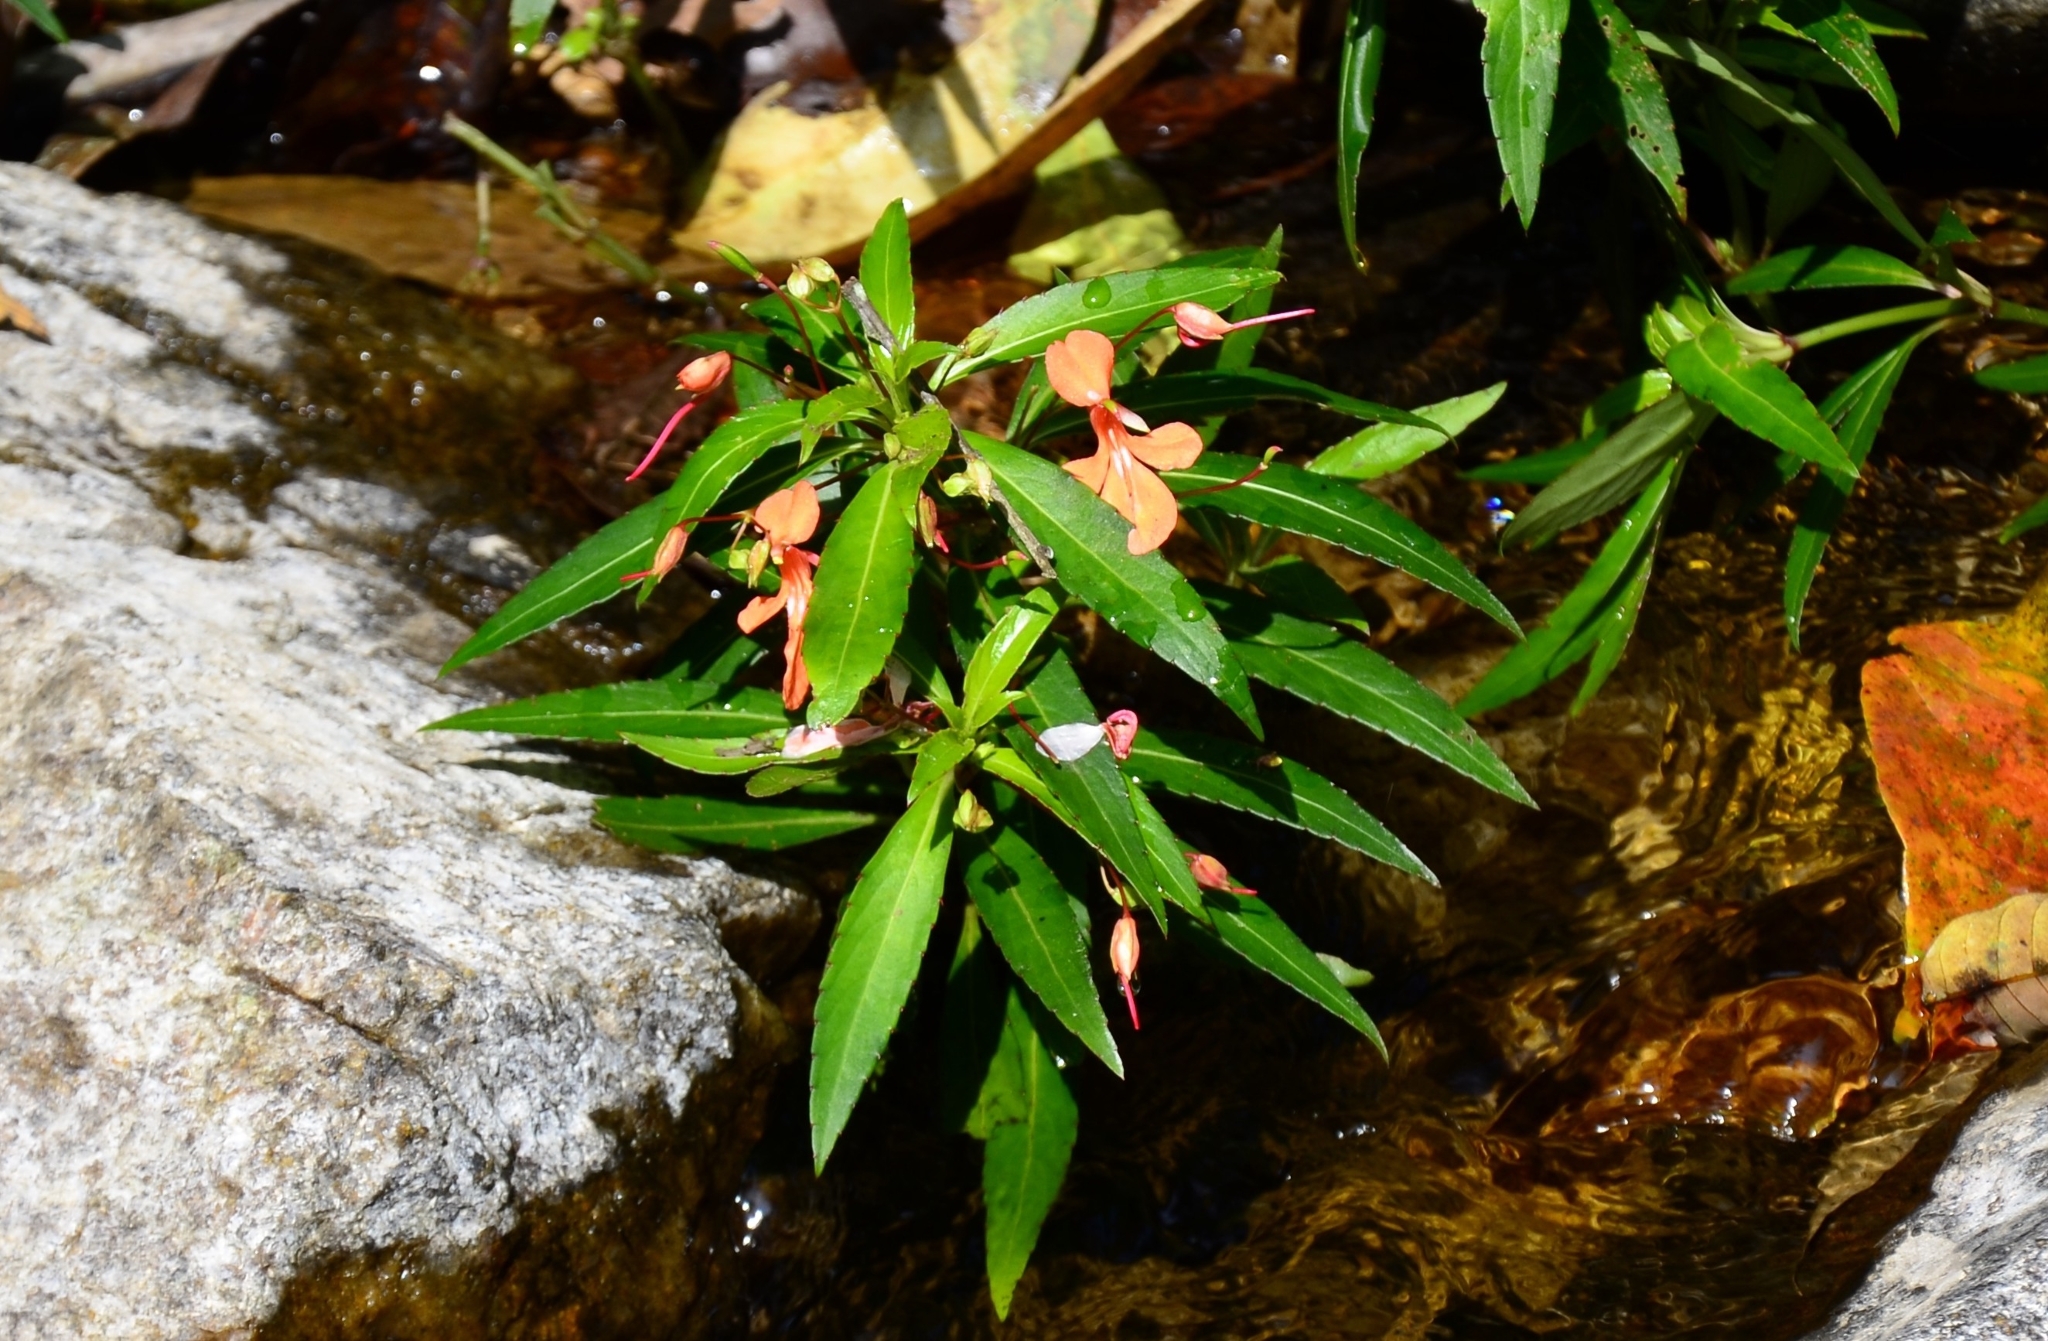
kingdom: Plantae
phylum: Tracheophyta
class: Magnoliopsida
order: Ericales
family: Balsaminaceae
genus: Impatiens
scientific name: Impatiens verticillata
